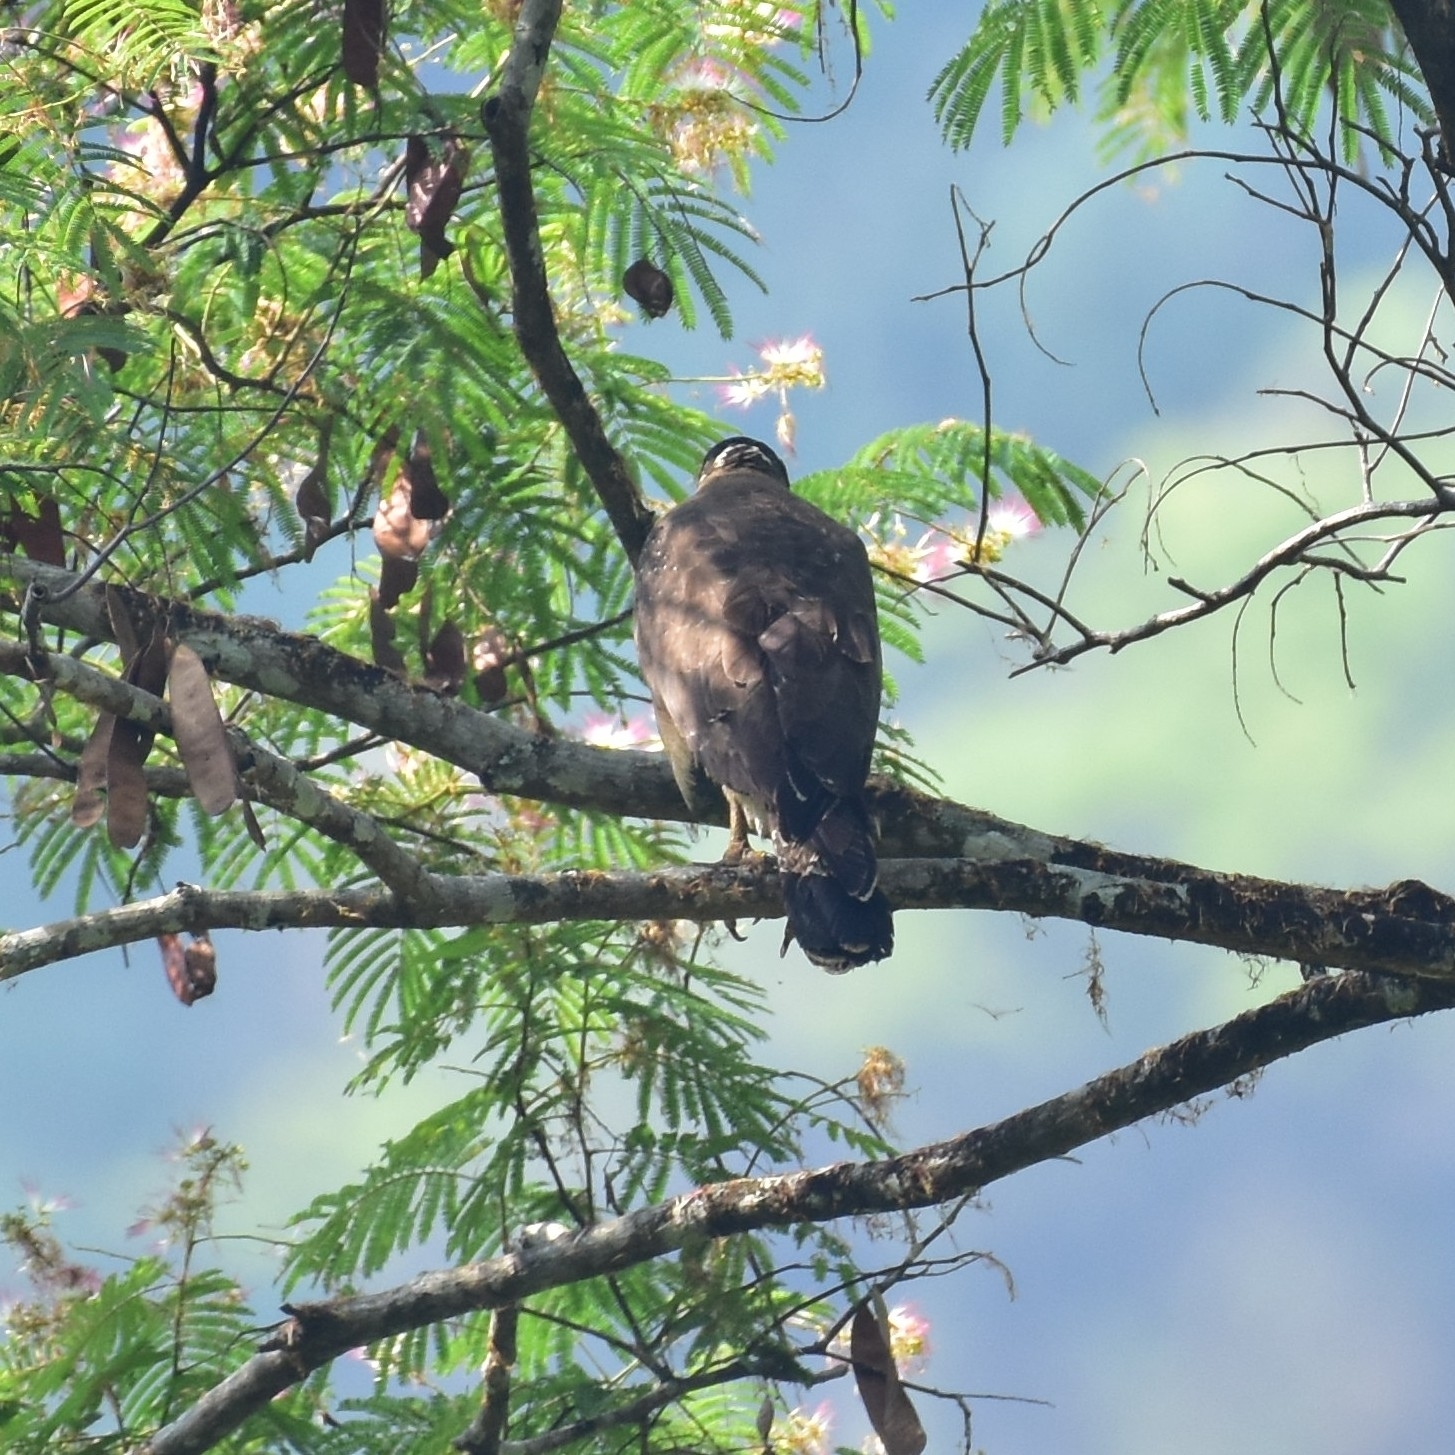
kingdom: Animalia
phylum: Chordata
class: Aves
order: Accipitriformes
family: Accipitridae
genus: Spilornis
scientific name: Spilornis cheela
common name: Crested serpent eagle
